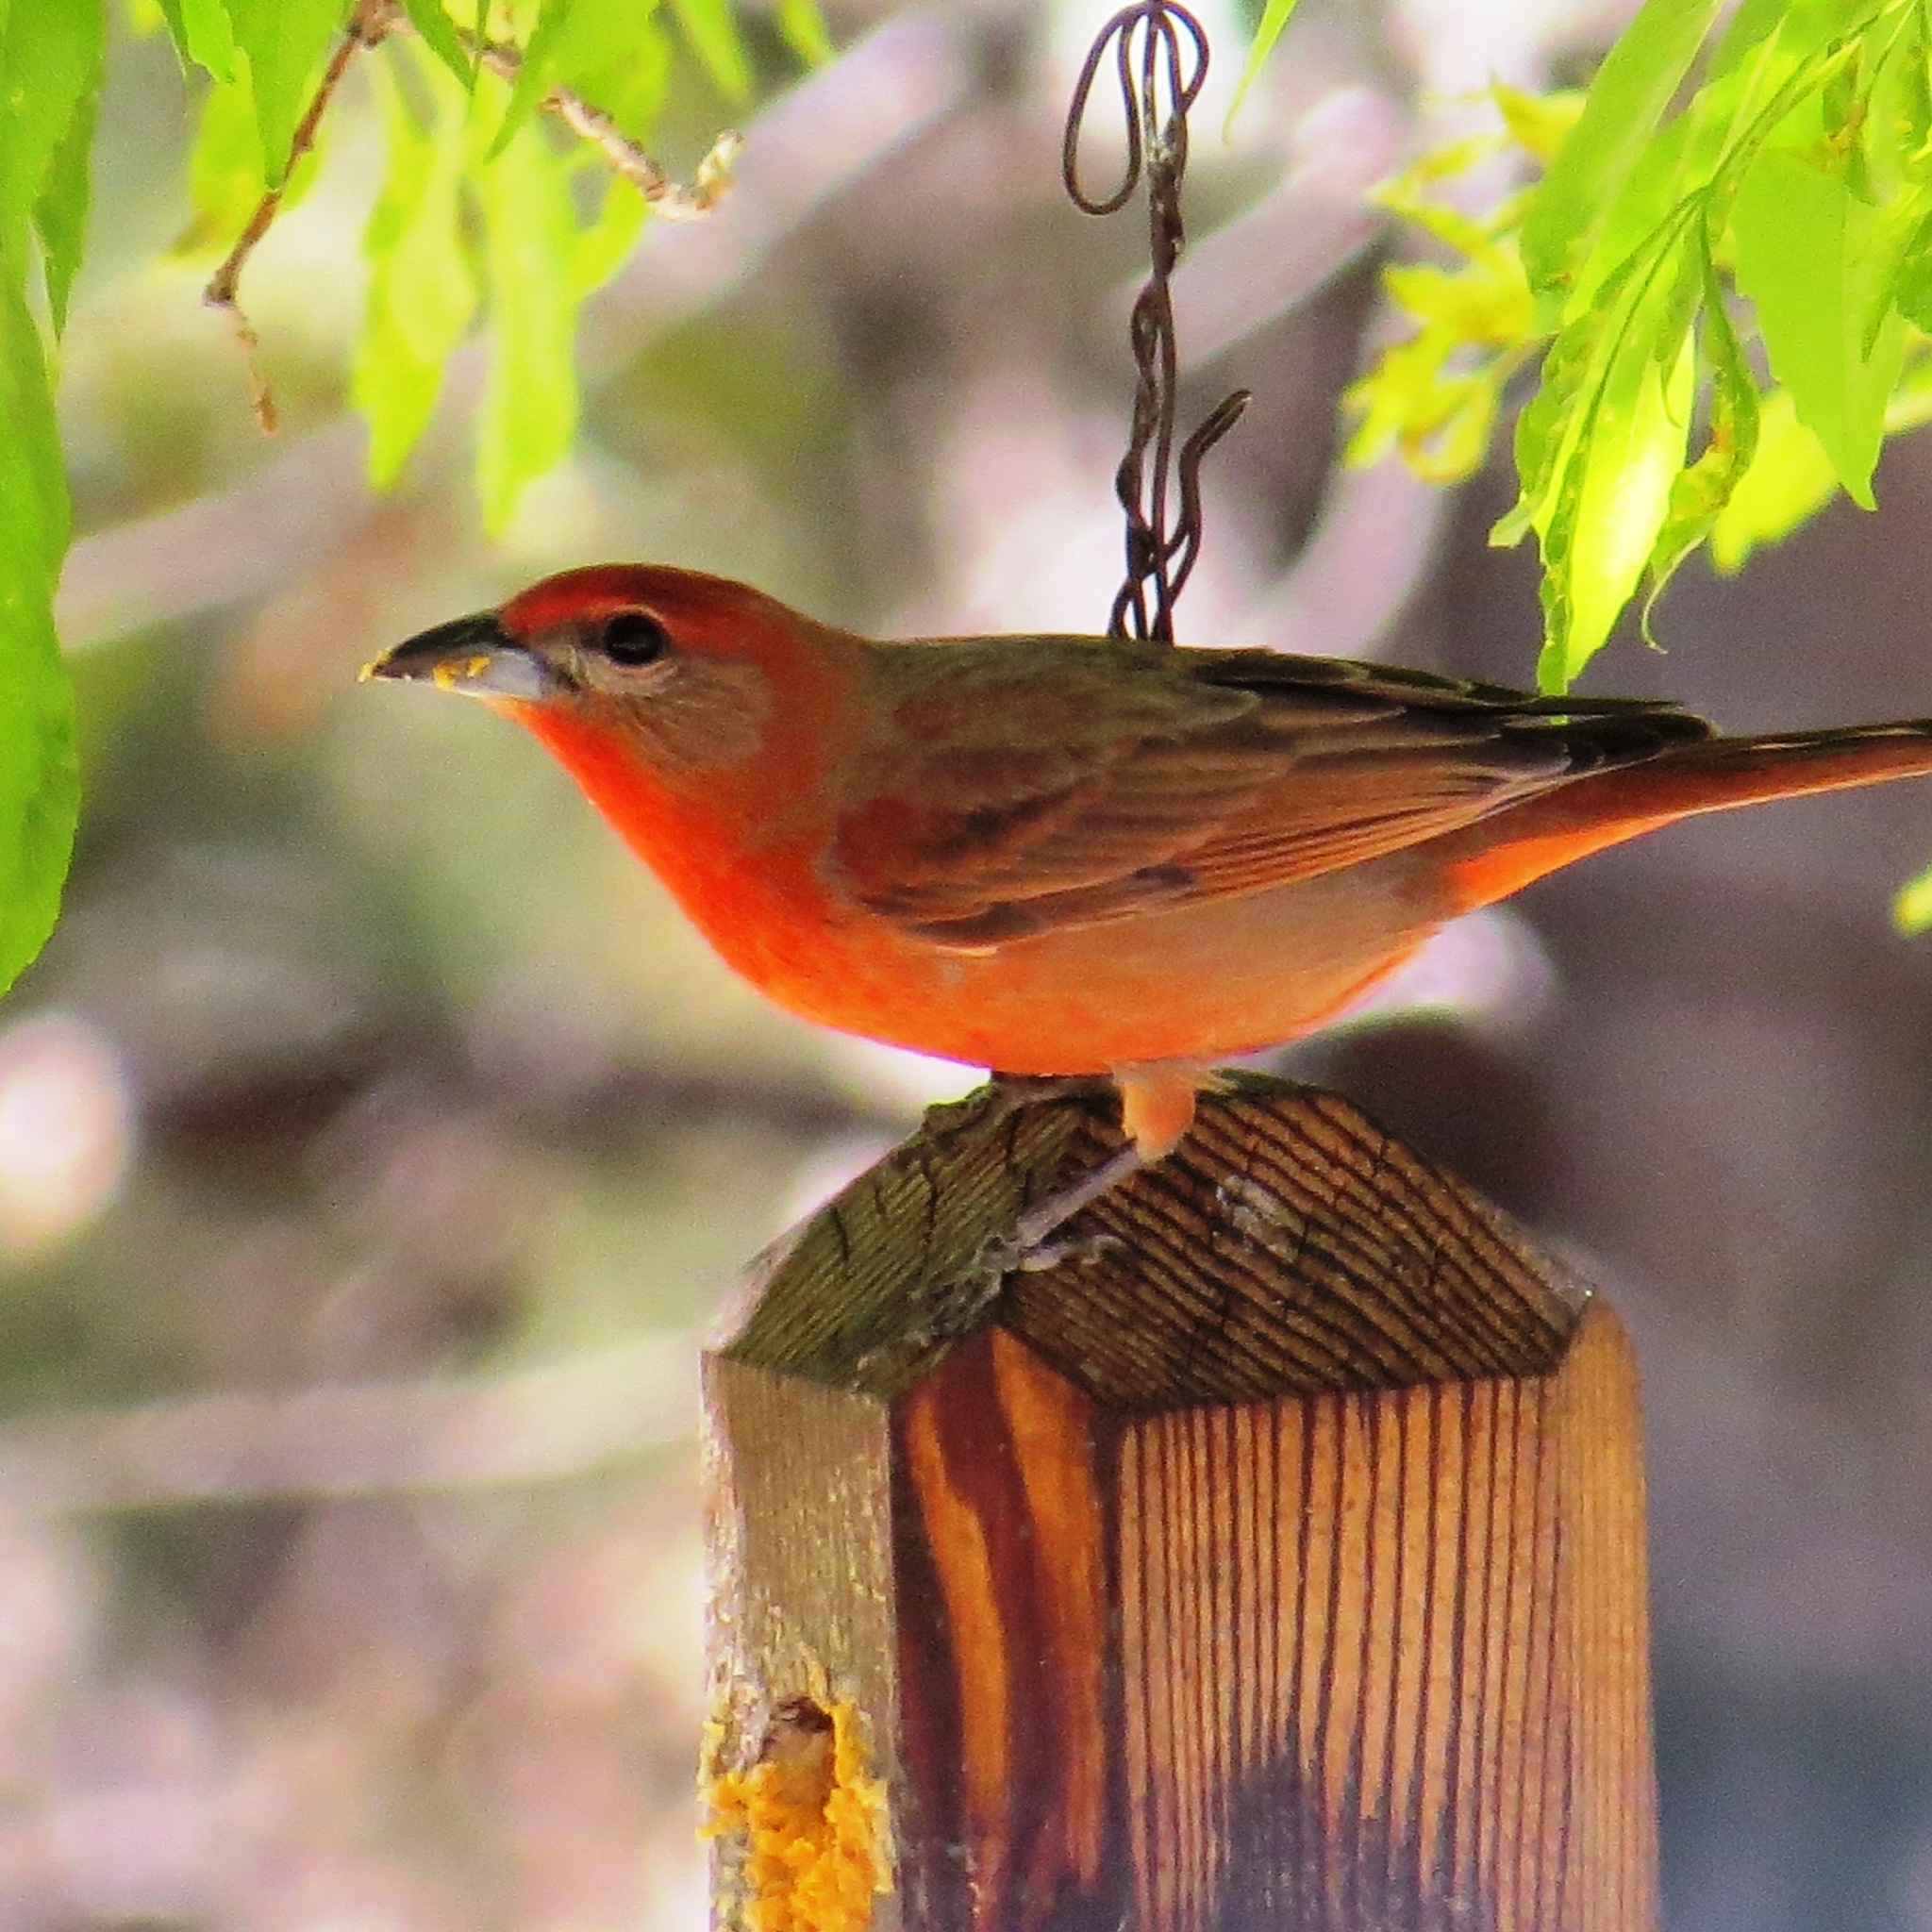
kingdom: Animalia
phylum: Chordata
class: Aves
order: Passeriformes
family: Cardinalidae
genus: Piranga
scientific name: Piranga flava
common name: Red tanager
